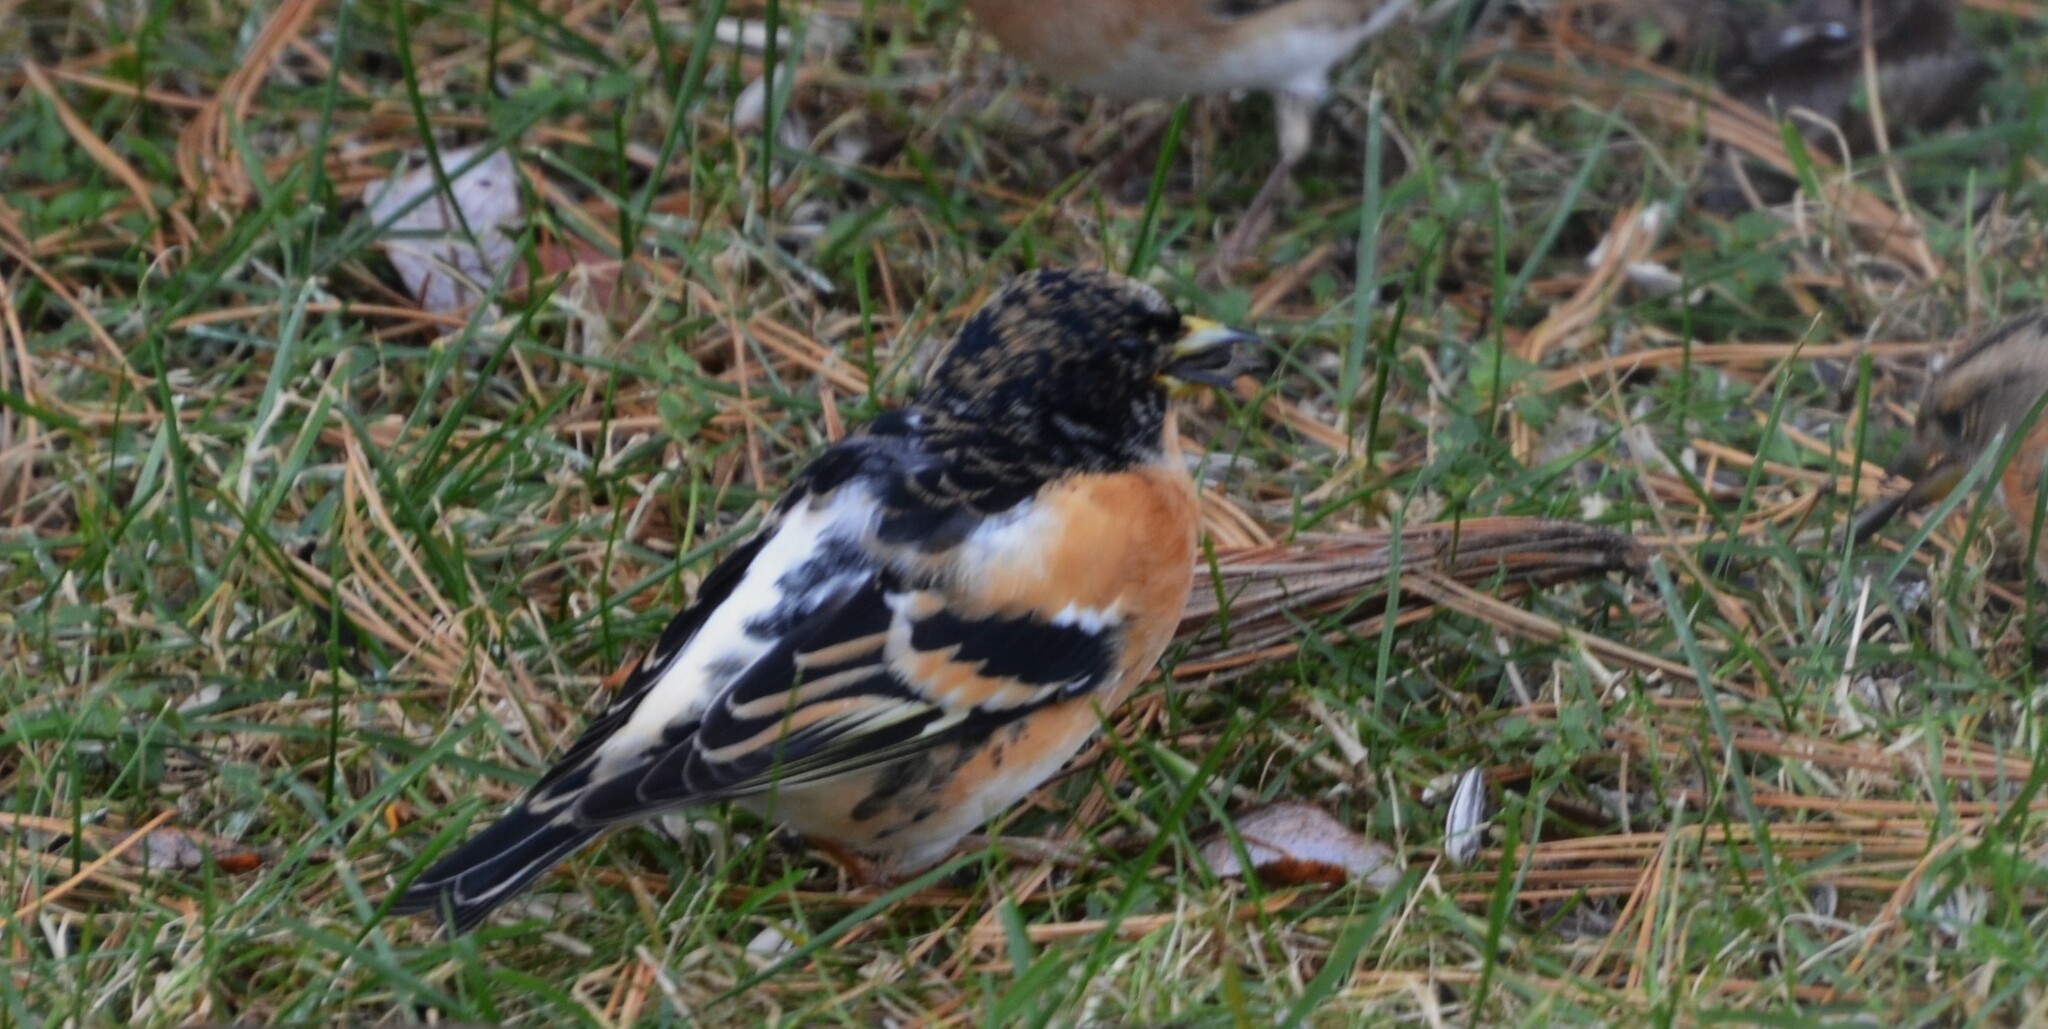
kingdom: Animalia
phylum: Chordata
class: Aves
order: Passeriformes
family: Fringillidae
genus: Fringilla
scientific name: Fringilla montifringilla
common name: Brambling
